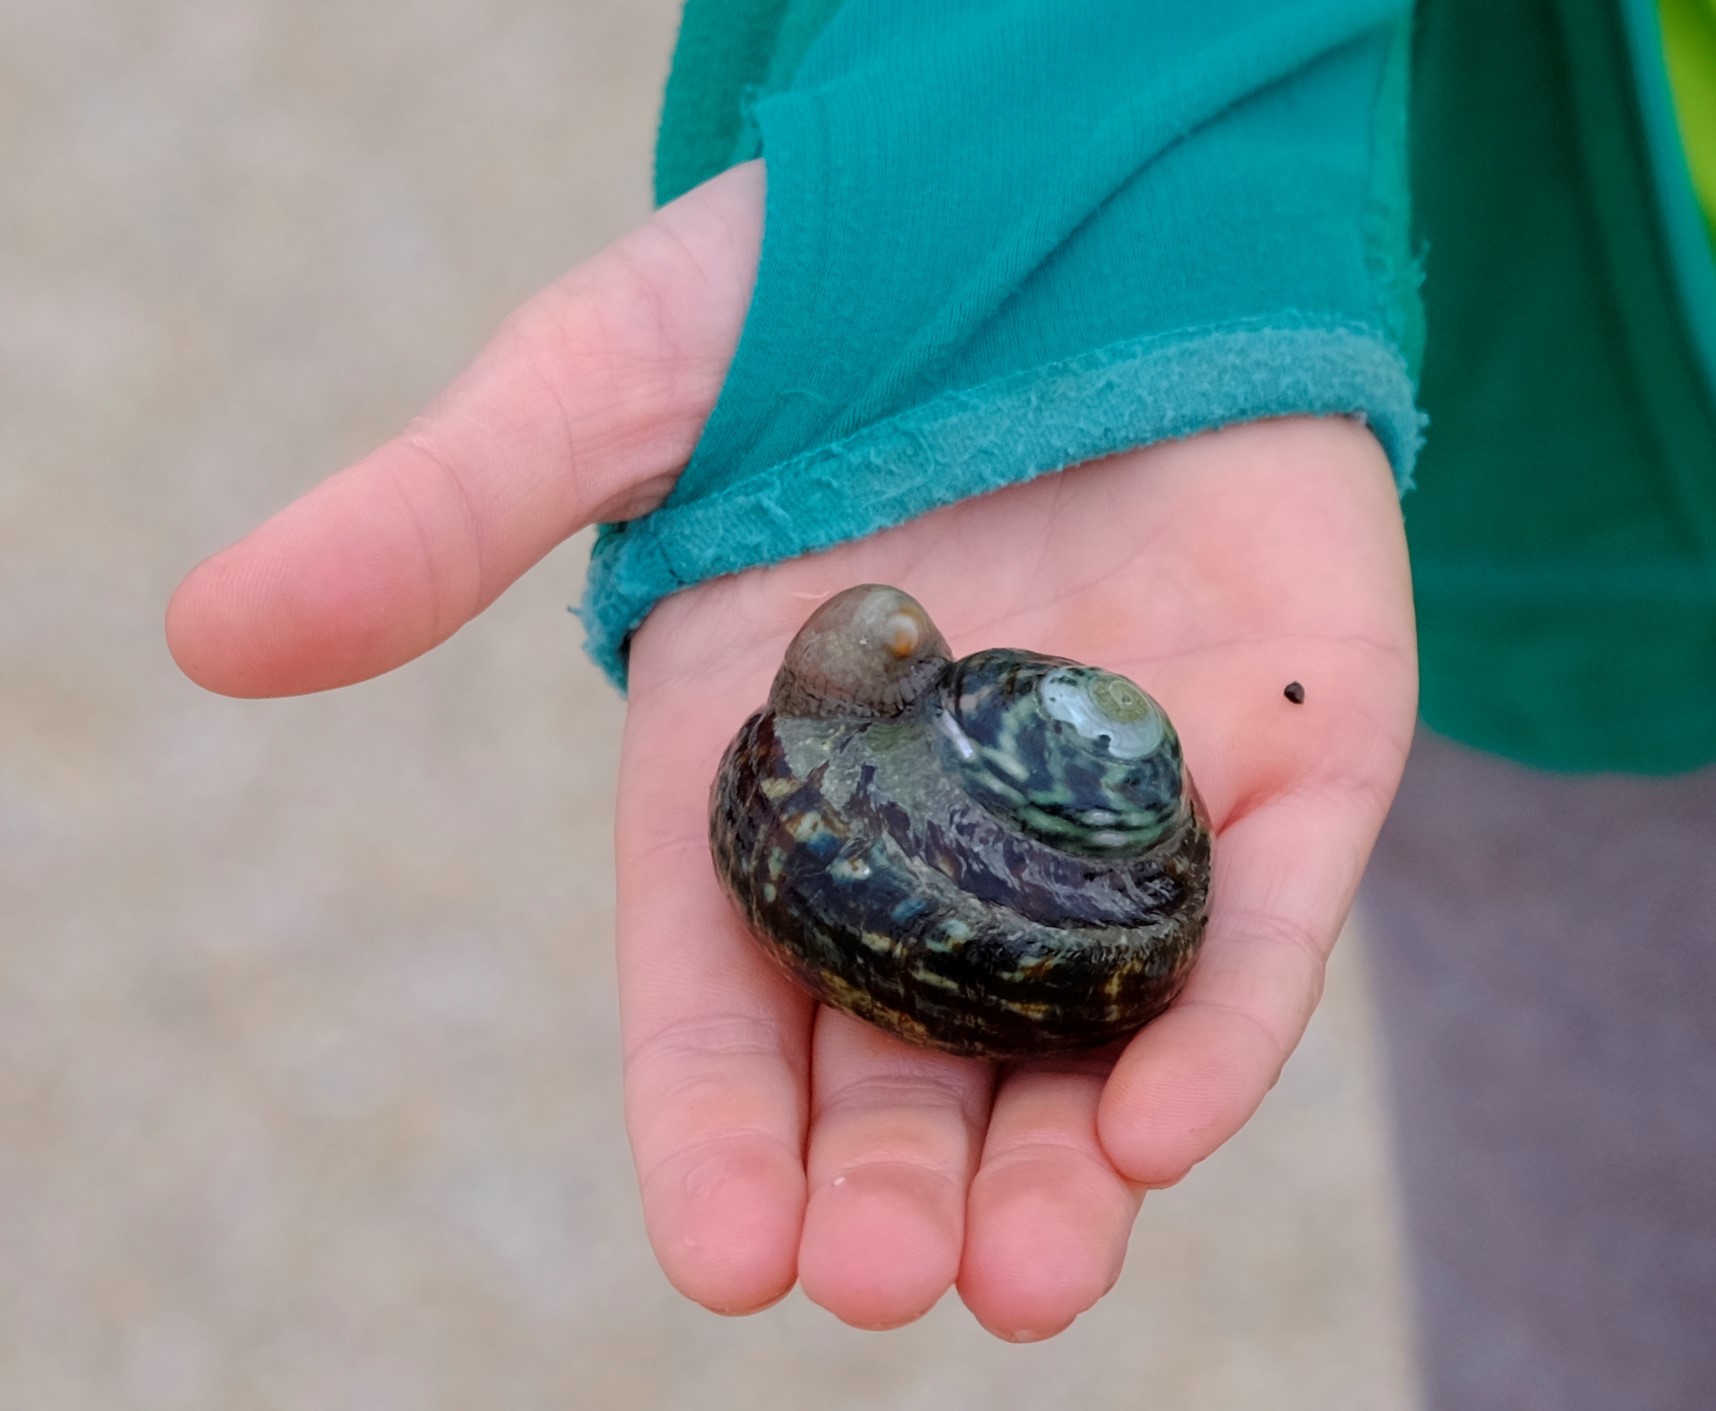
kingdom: Animalia
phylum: Mollusca
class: Gastropoda
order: Trochida
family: Turbinidae
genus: Lunella
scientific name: Lunella undulata
